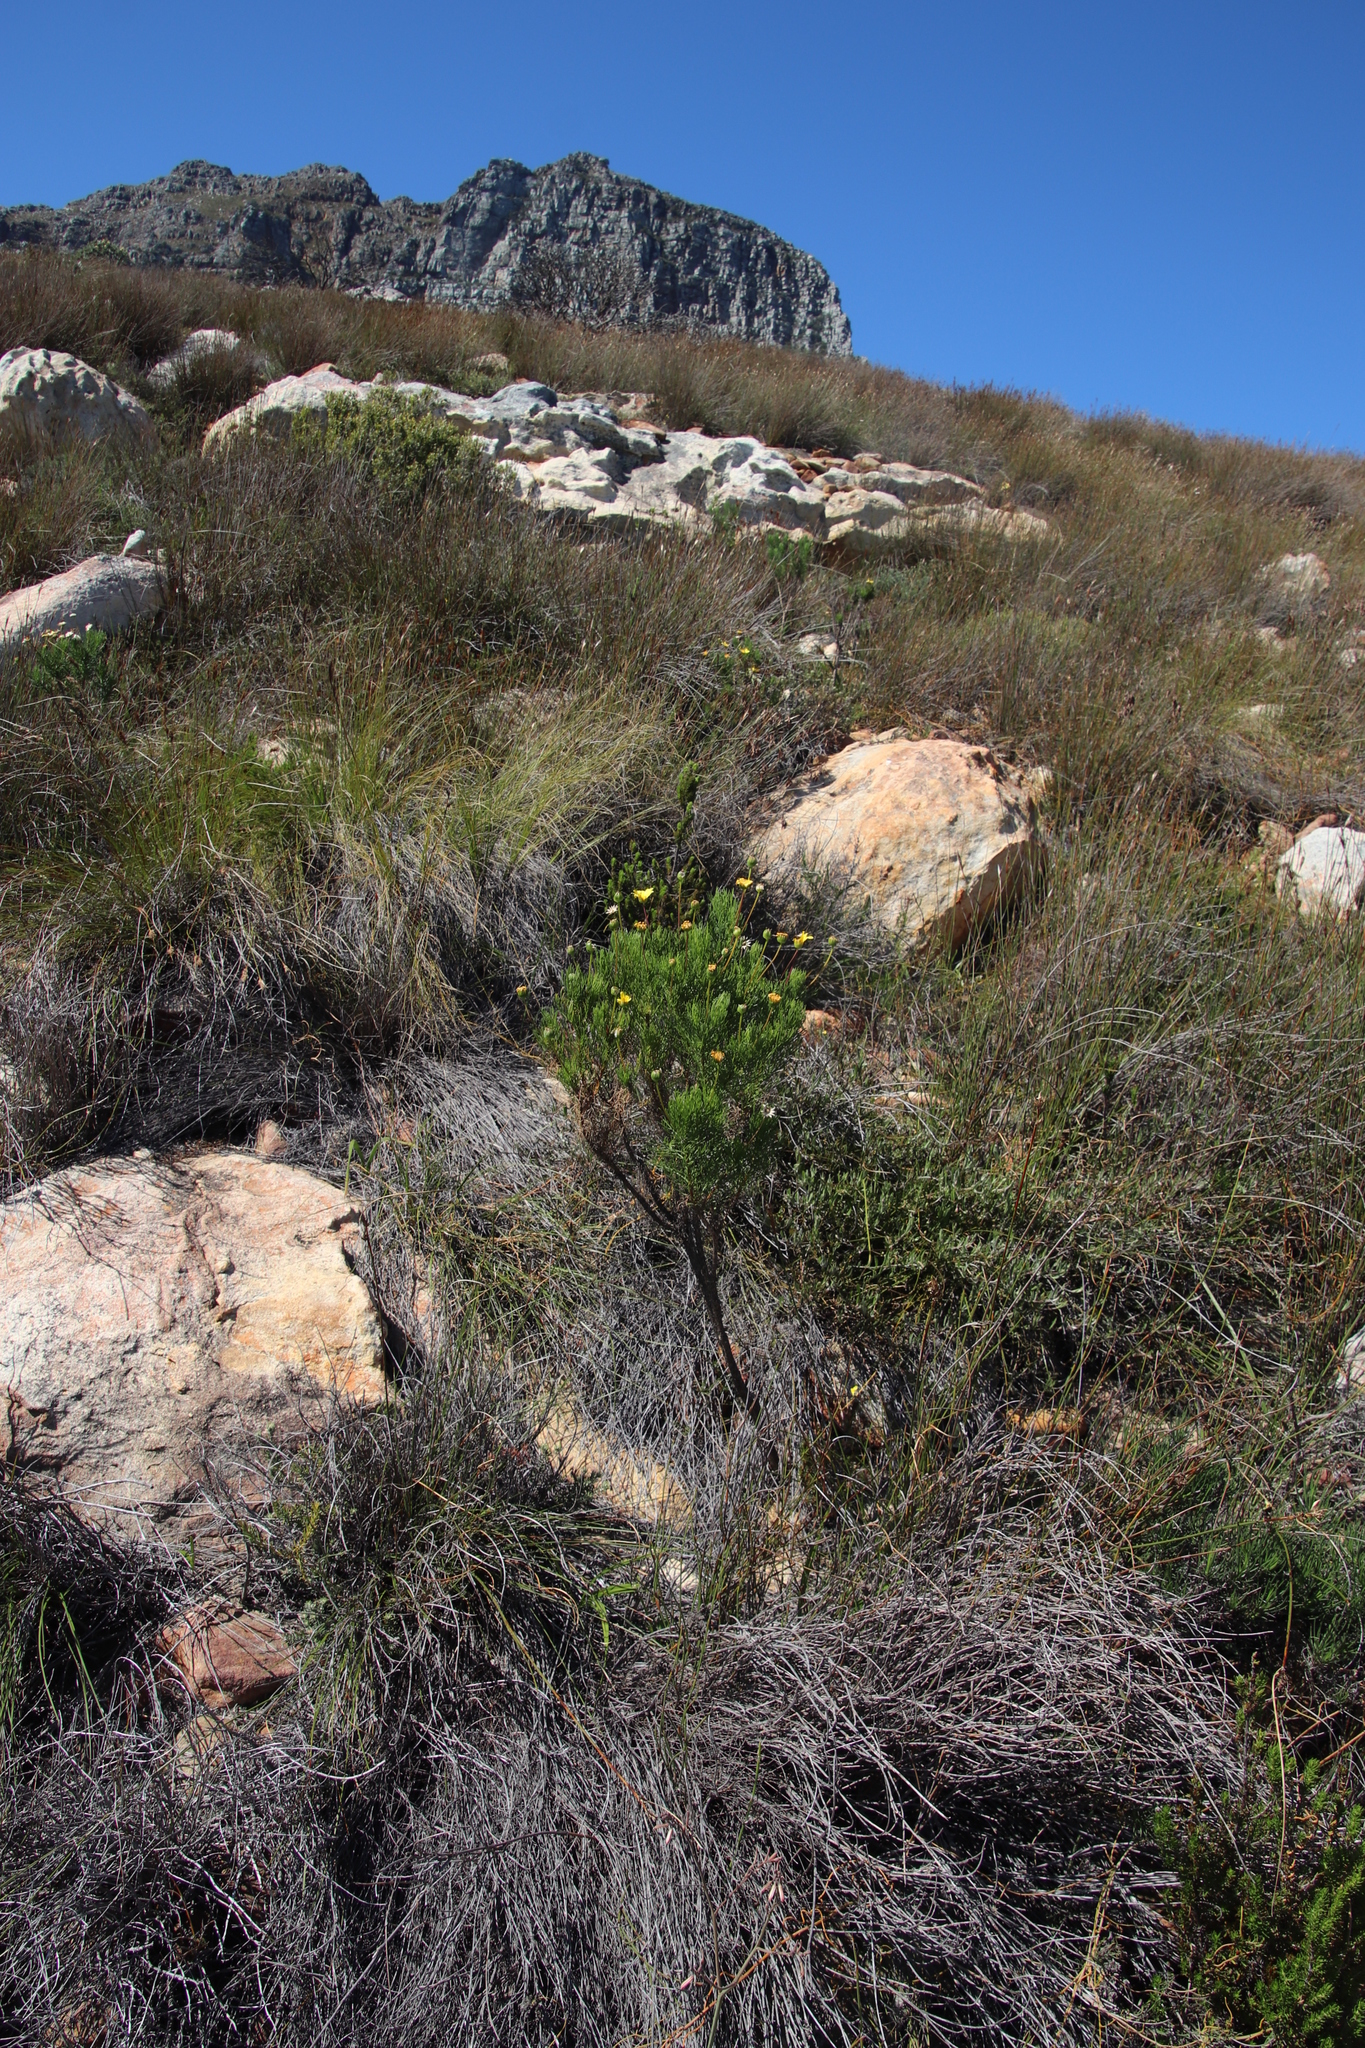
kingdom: Plantae
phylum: Tracheophyta
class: Magnoliopsida
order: Asterales
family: Asteraceae
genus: Euryops
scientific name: Euryops abrotanifolius
